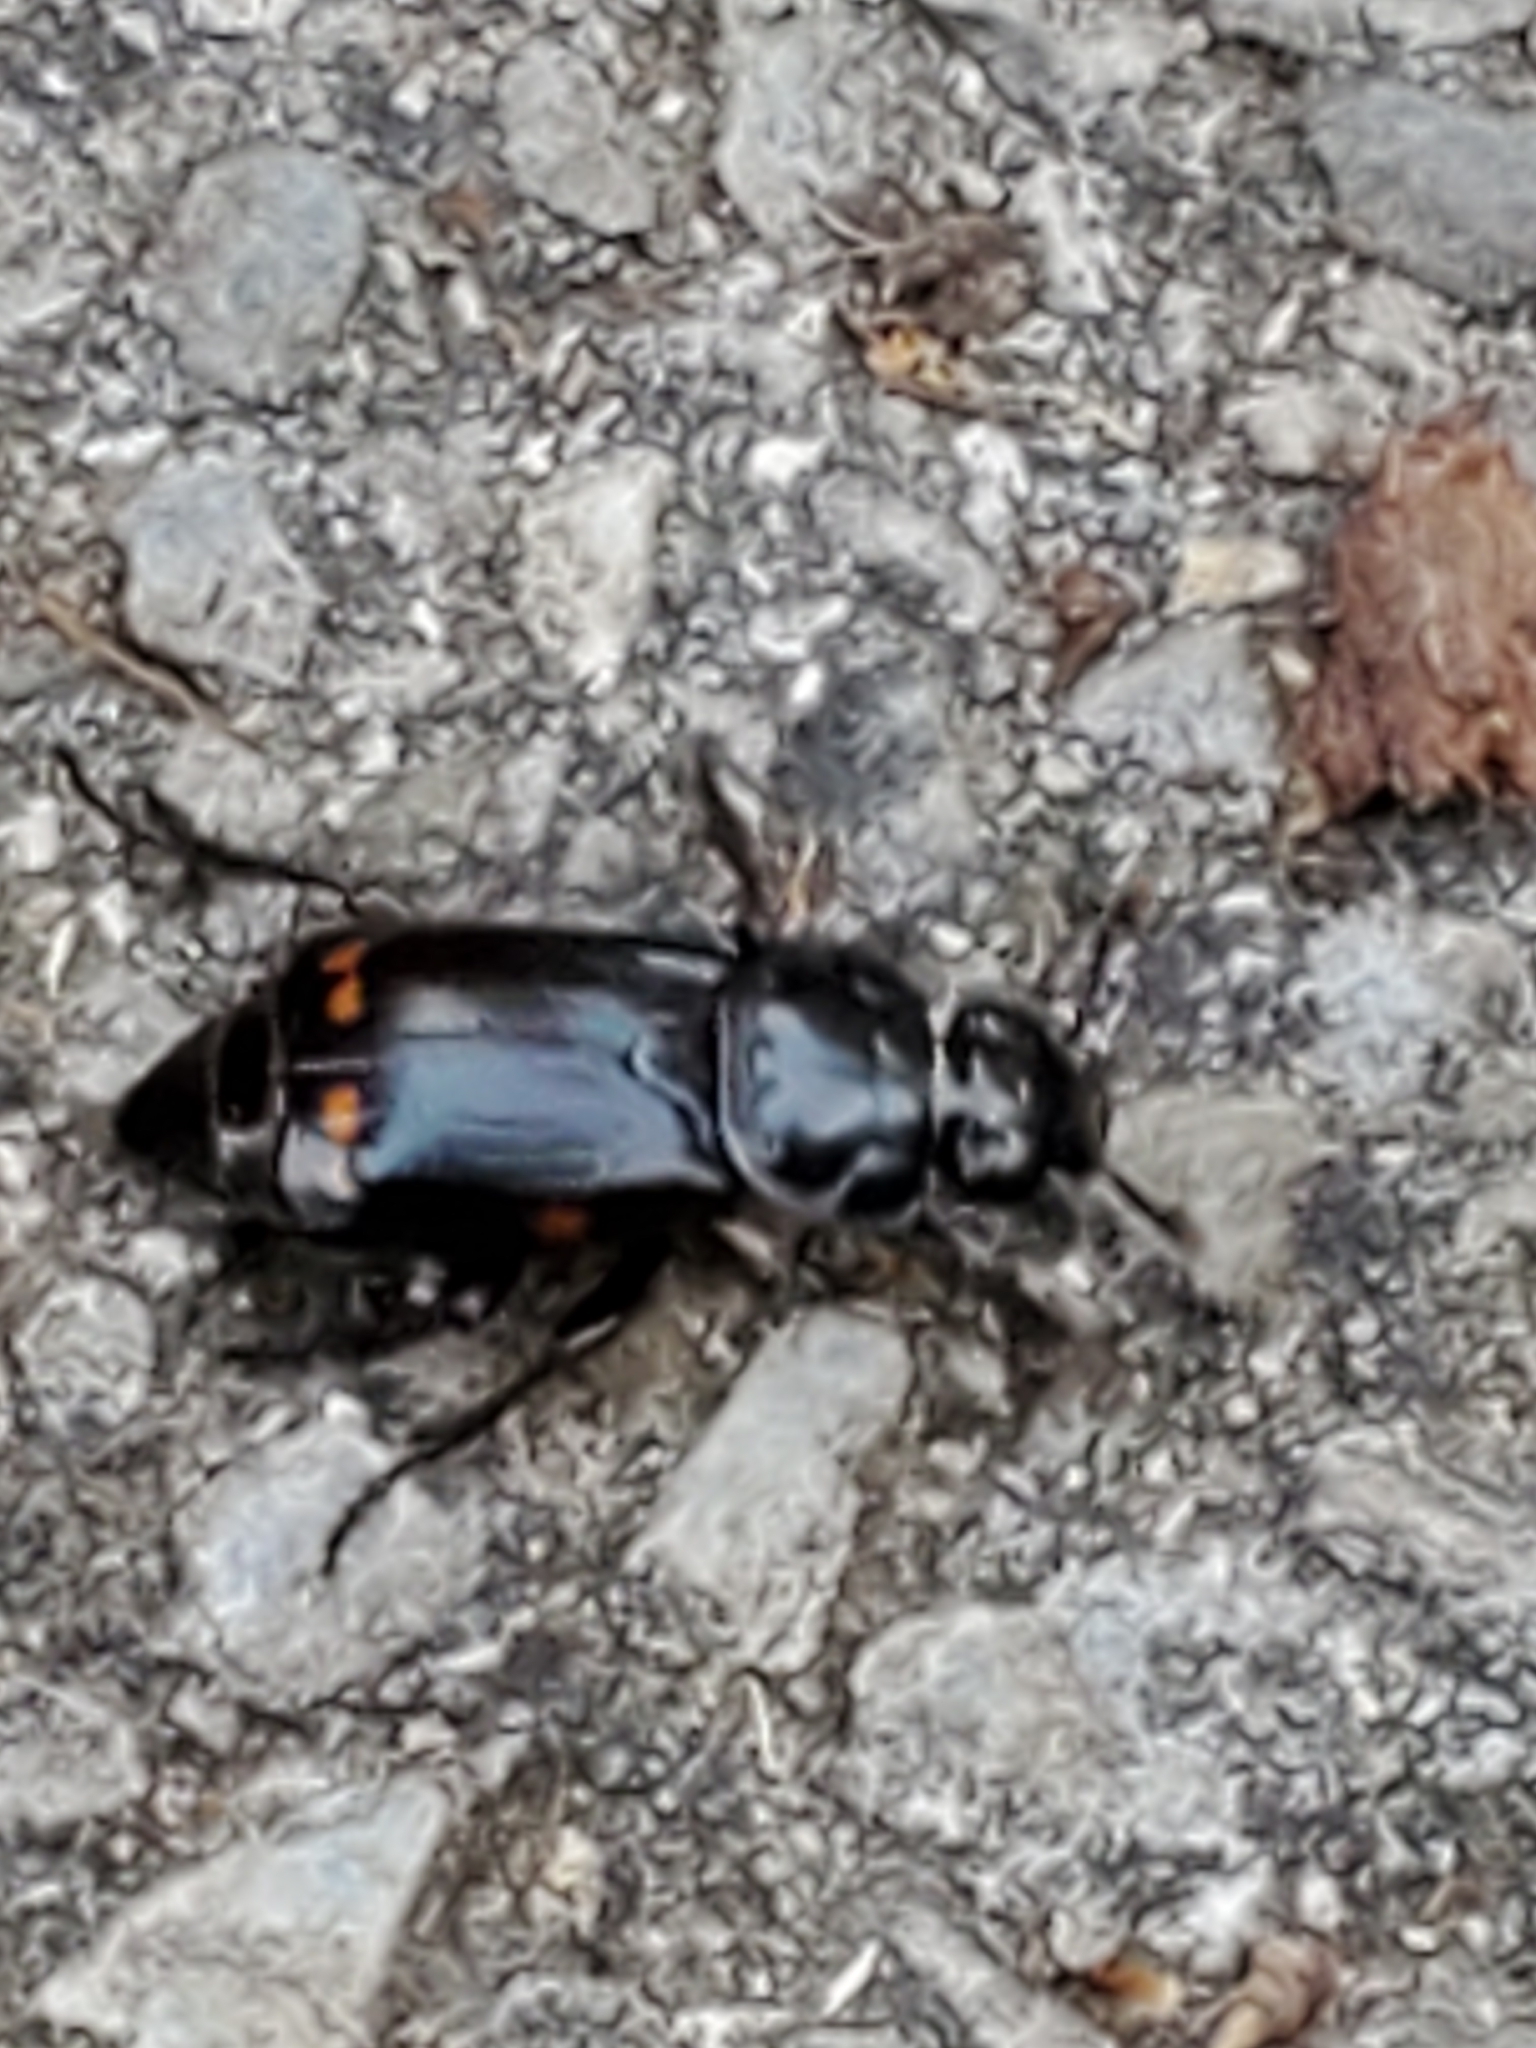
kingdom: Animalia
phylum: Arthropoda
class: Insecta
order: Coleoptera
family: Staphylinidae
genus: Nicrophorus
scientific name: Nicrophorus pustulatus
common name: Pustulated carrion beetle
